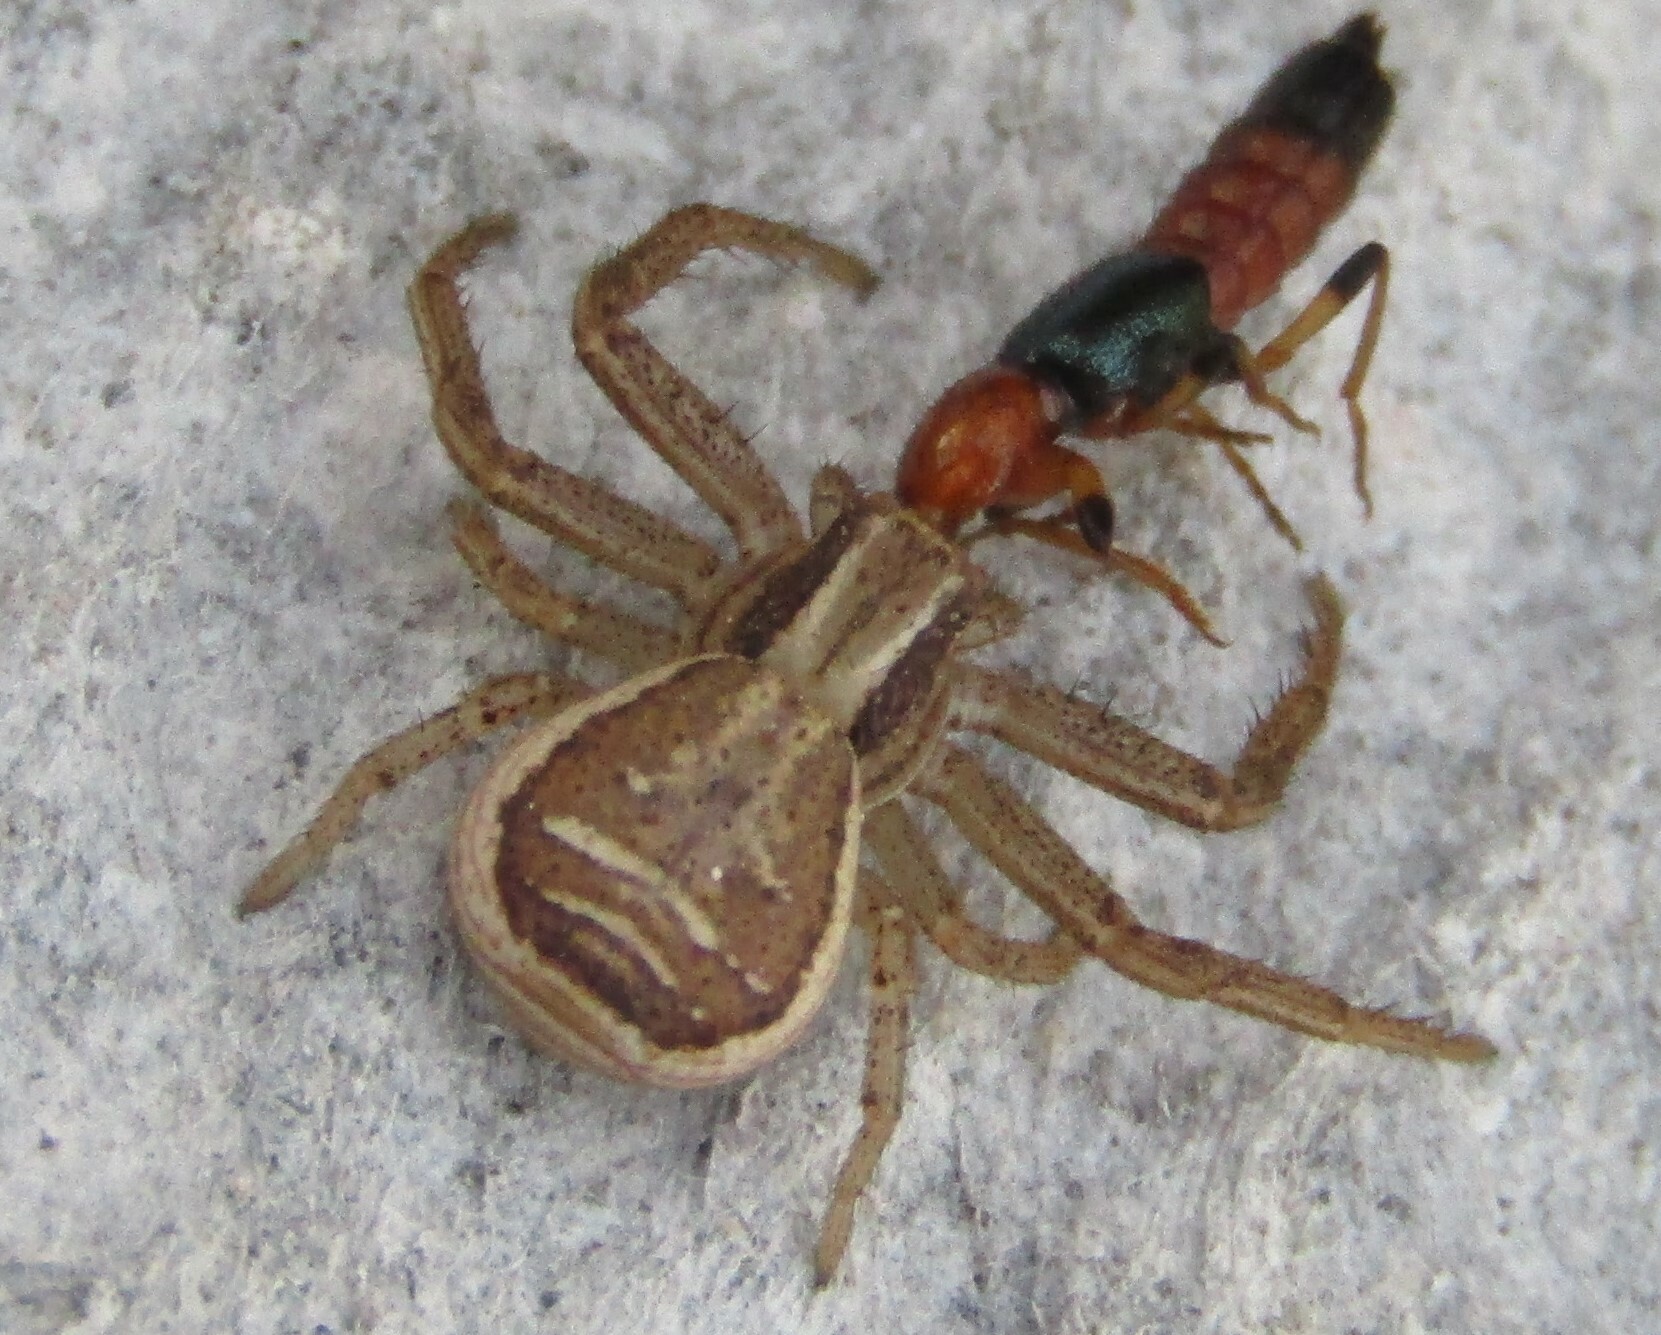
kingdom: Animalia
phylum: Arthropoda
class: Arachnida
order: Araneae
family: Thomisidae
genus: Xysticus
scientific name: Xysticus ulmi
